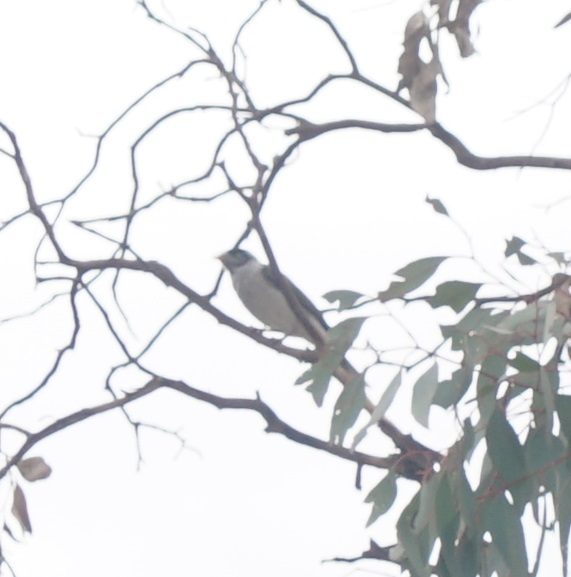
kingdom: Animalia
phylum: Chordata
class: Aves
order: Passeriformes
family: Meliphagidae
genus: Manorina
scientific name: Manorina melanocephala
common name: Noisy miner
